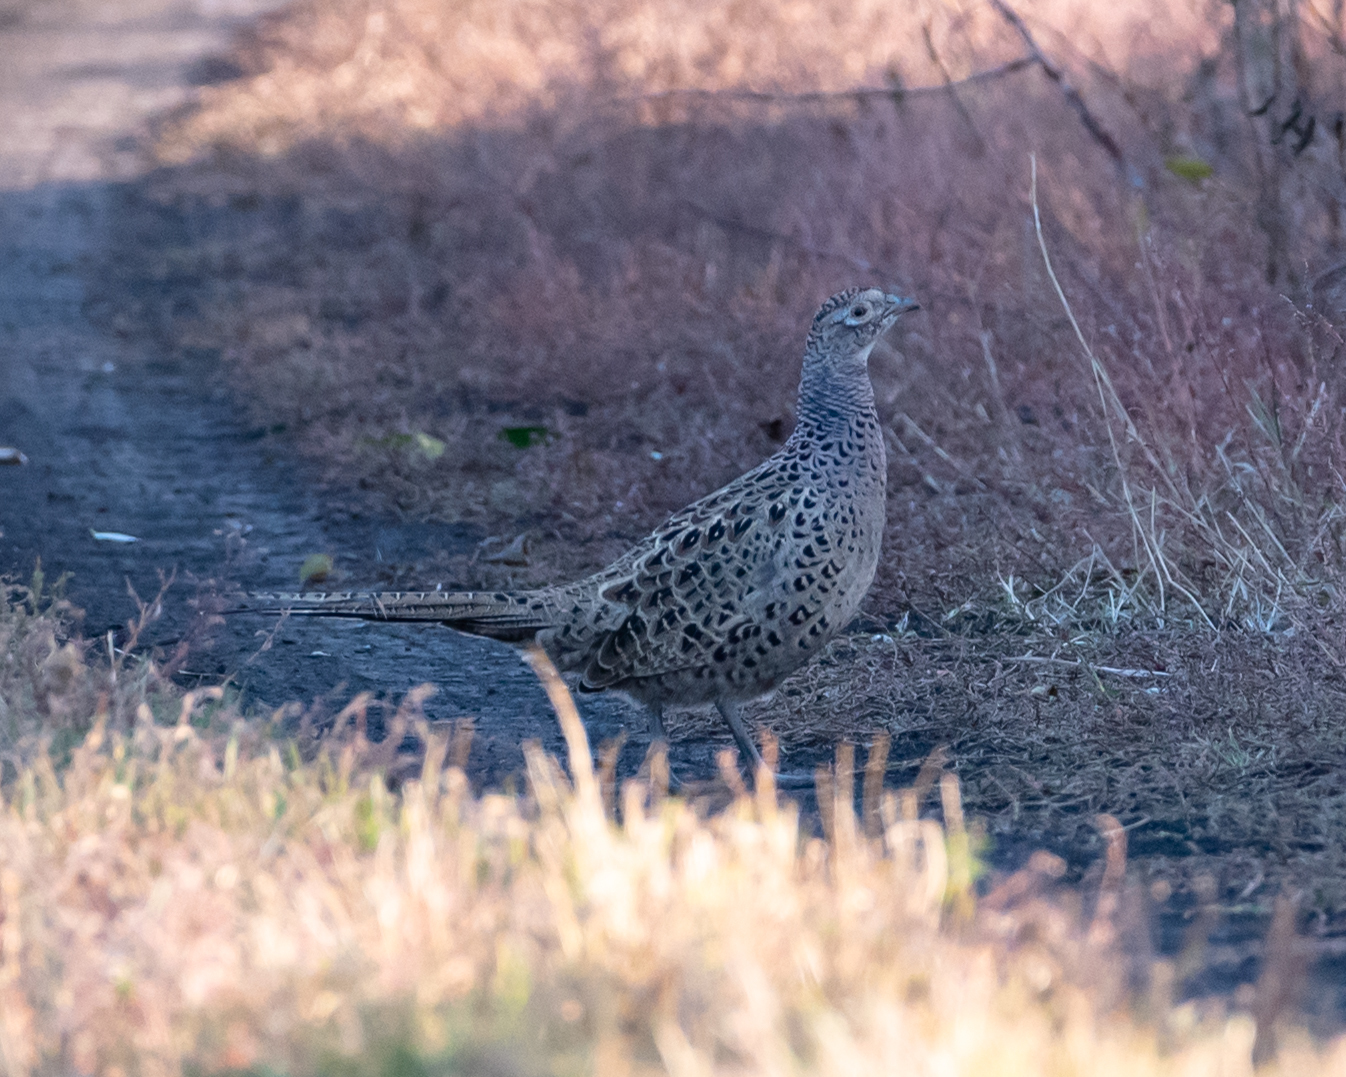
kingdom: Animalia
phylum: Chordata
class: Aves
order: Galliformes
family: Phasianidae
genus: Phasianus
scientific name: Phasianus colchicus
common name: Common pheasant
